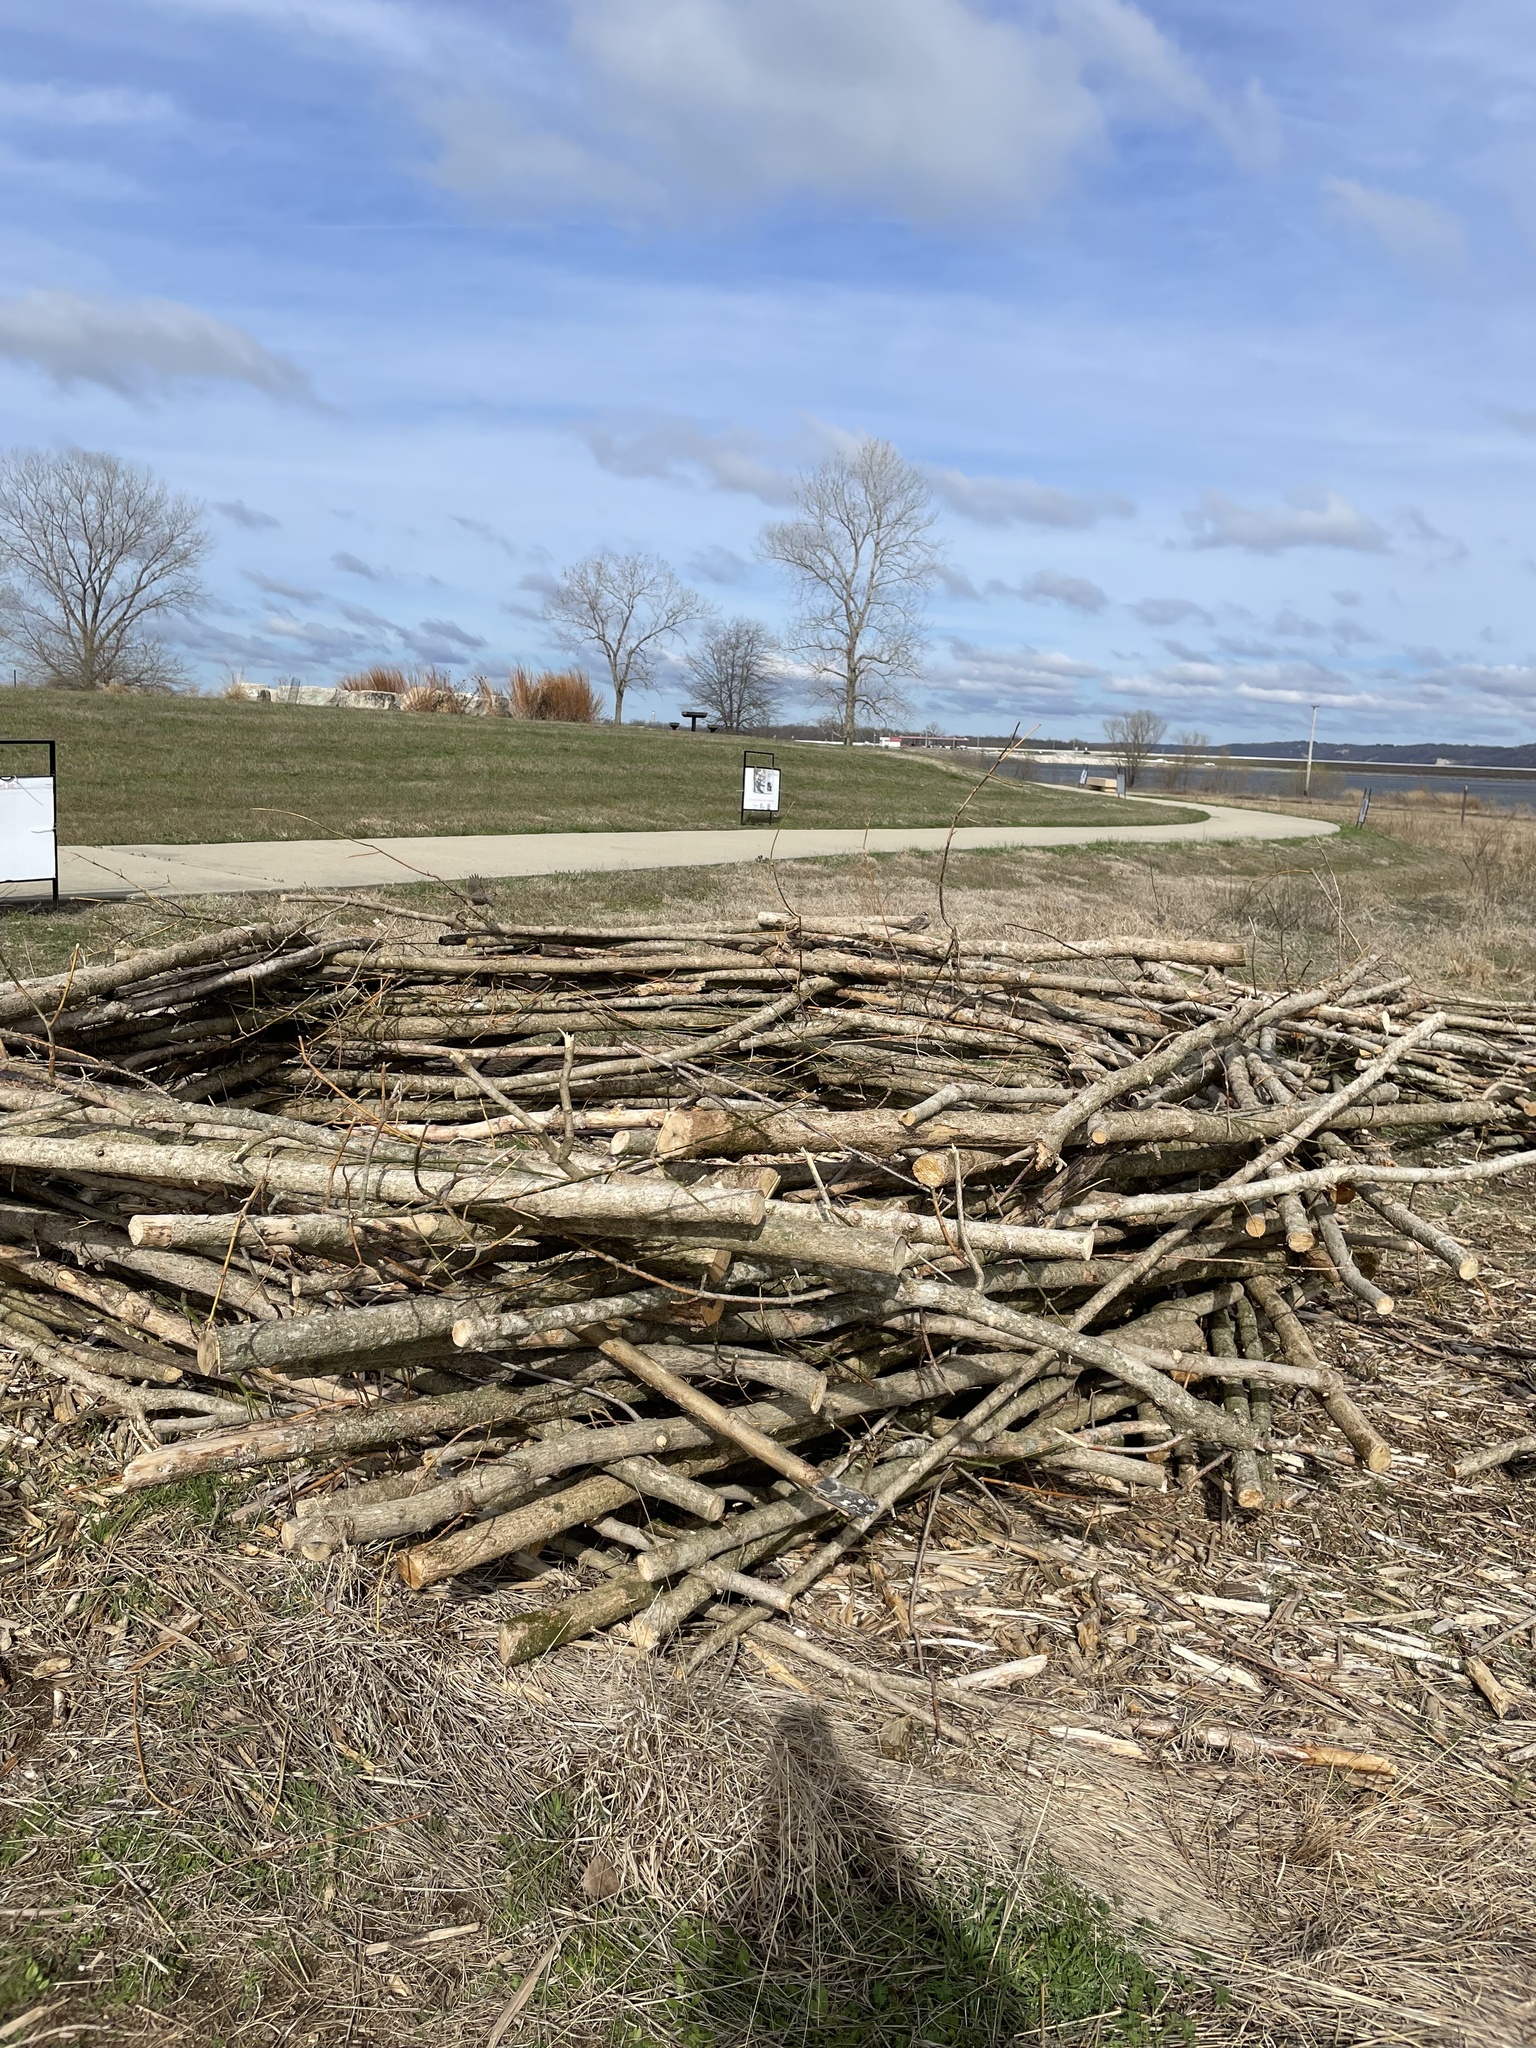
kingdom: Animalia
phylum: Chordata
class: Aves
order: Passeriformes
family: Passerellidae
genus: Zonotrichia
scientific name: Zonotrichia leucophrys
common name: White-crowned sparrow
